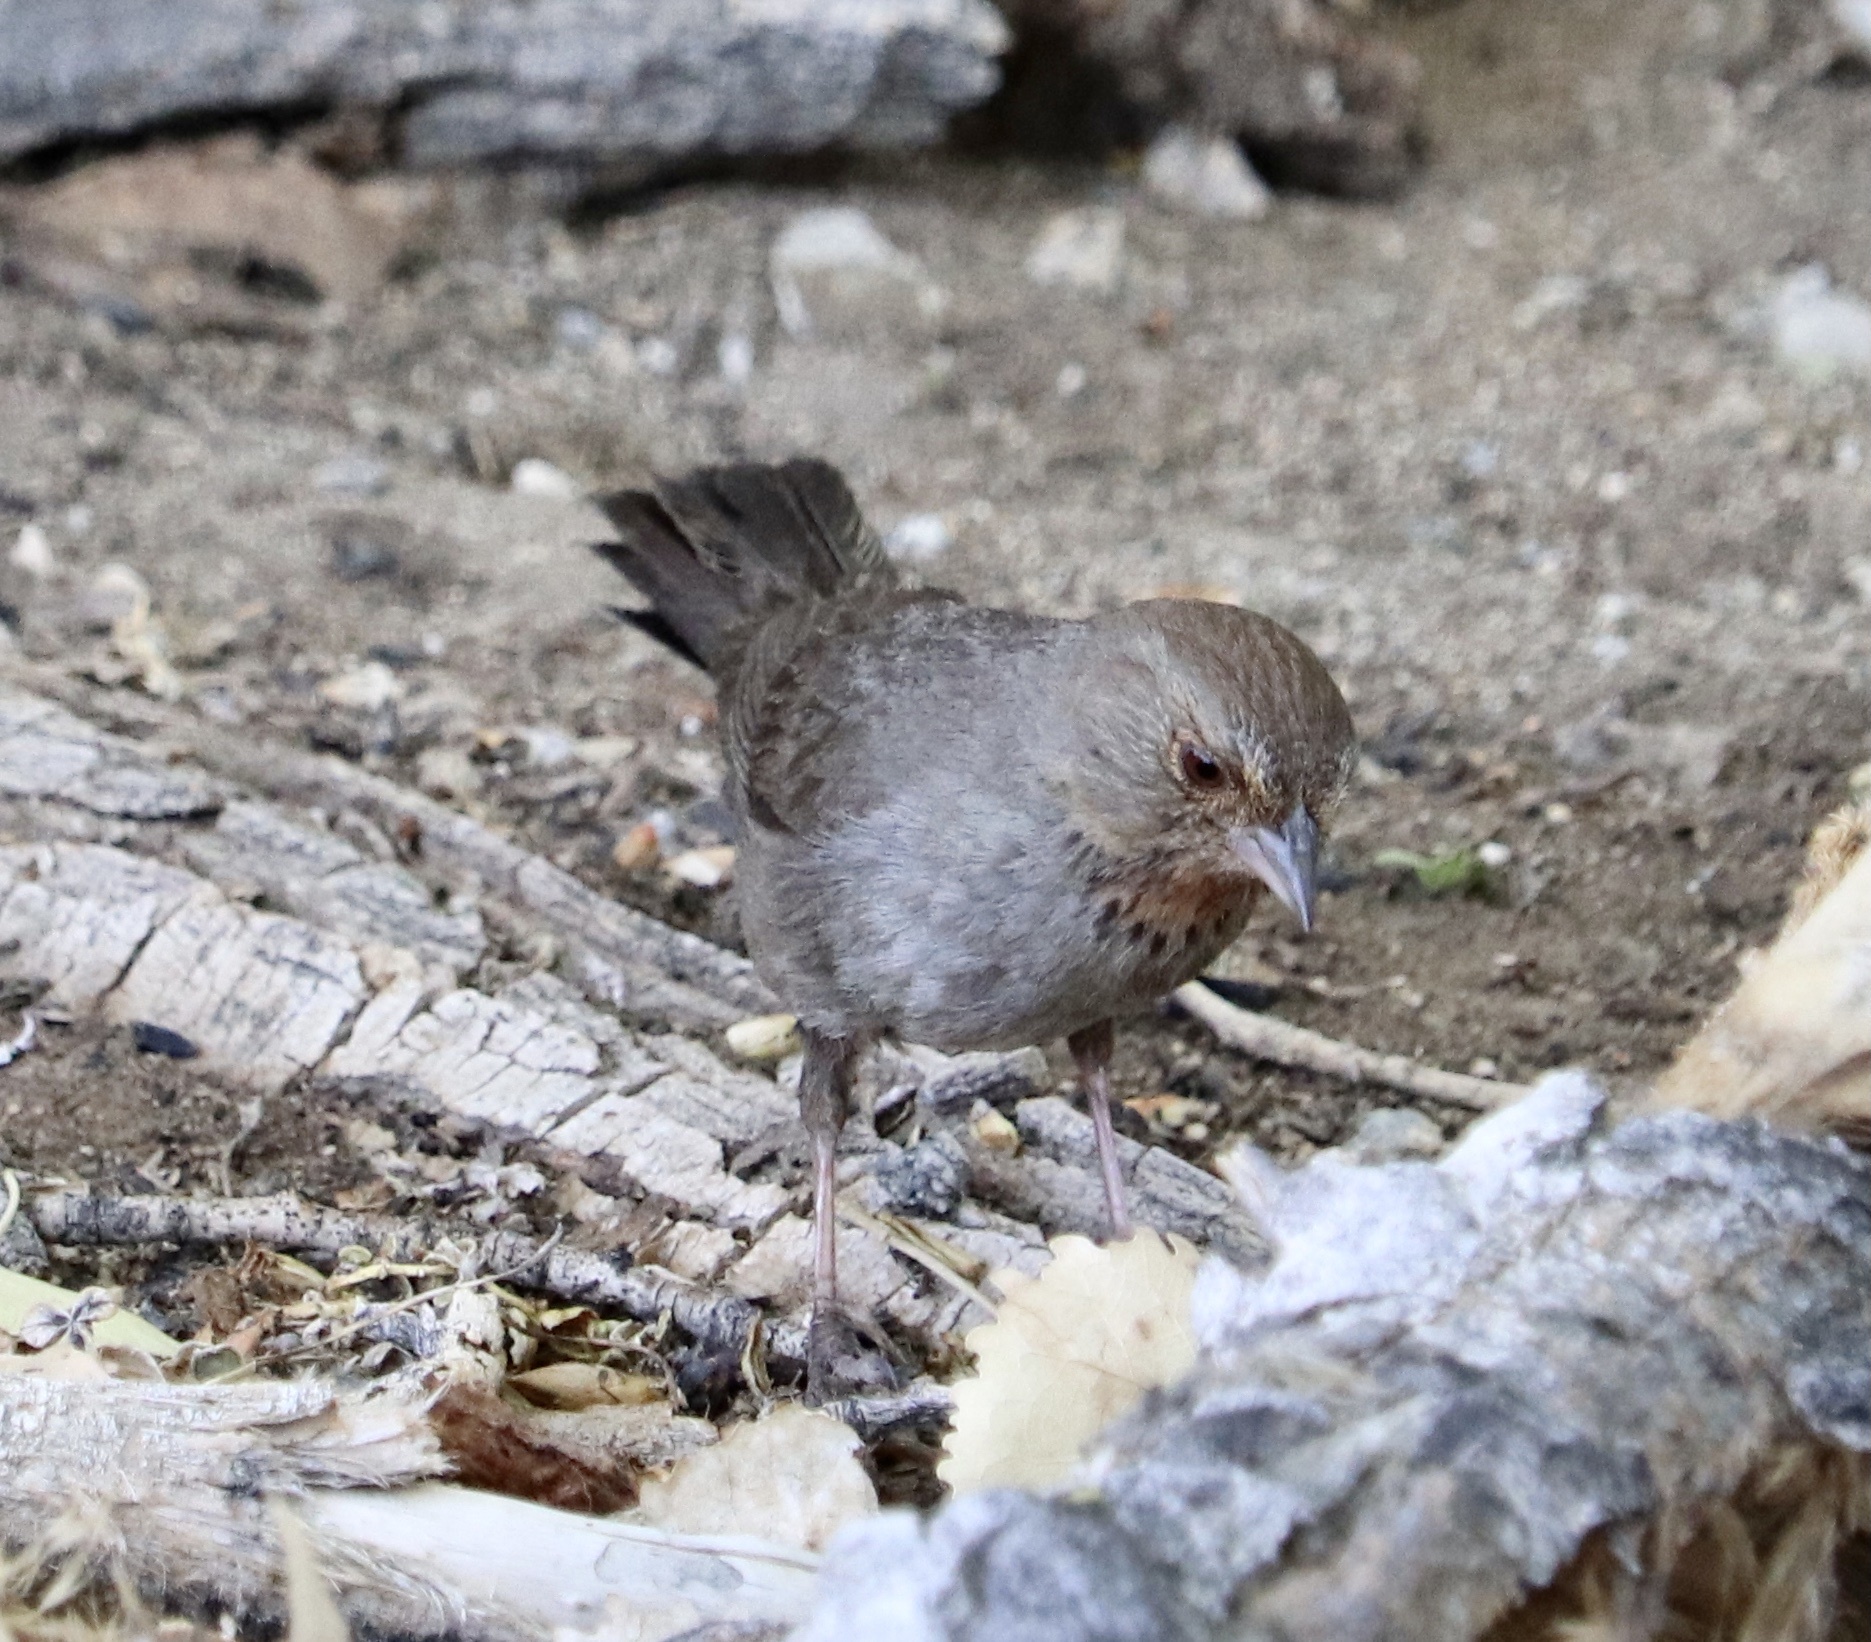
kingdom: Animalia
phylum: Chordata
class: Aves
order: Passeriformes
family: Passerellidae
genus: Melozone
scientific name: Melozone crissalis
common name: California towhee
